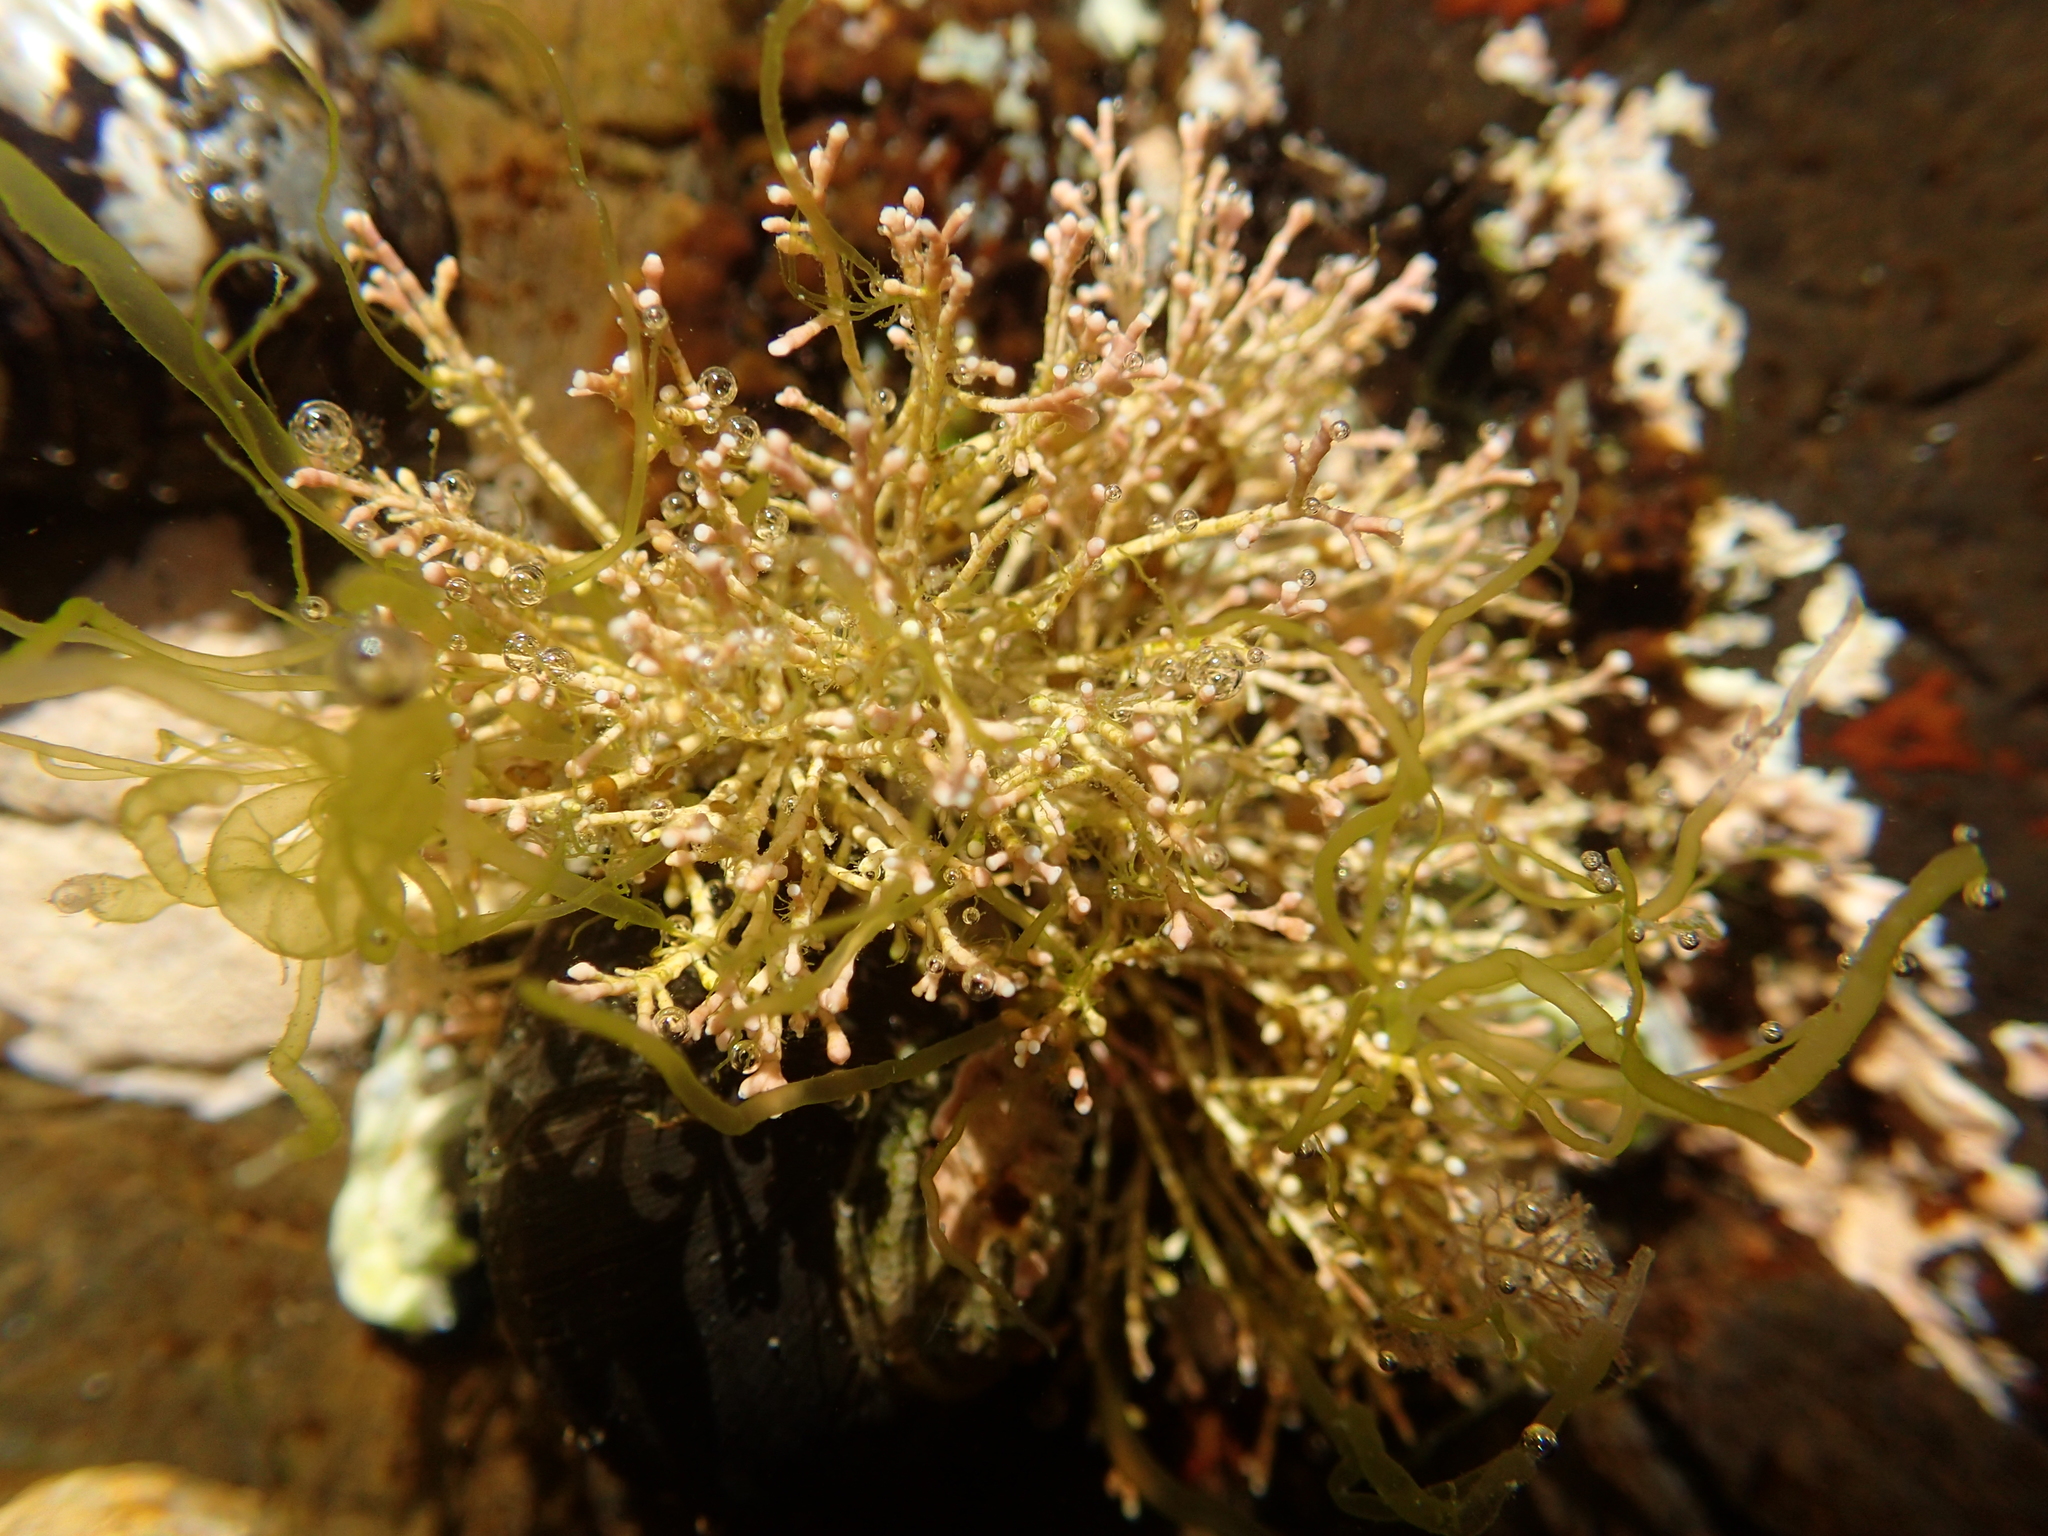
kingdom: Plantae
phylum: Rhodophyta
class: Florideophyceae
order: Corallinales
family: Corallinaceae
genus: Corallina
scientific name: Corallina officinalis
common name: Coral weed
